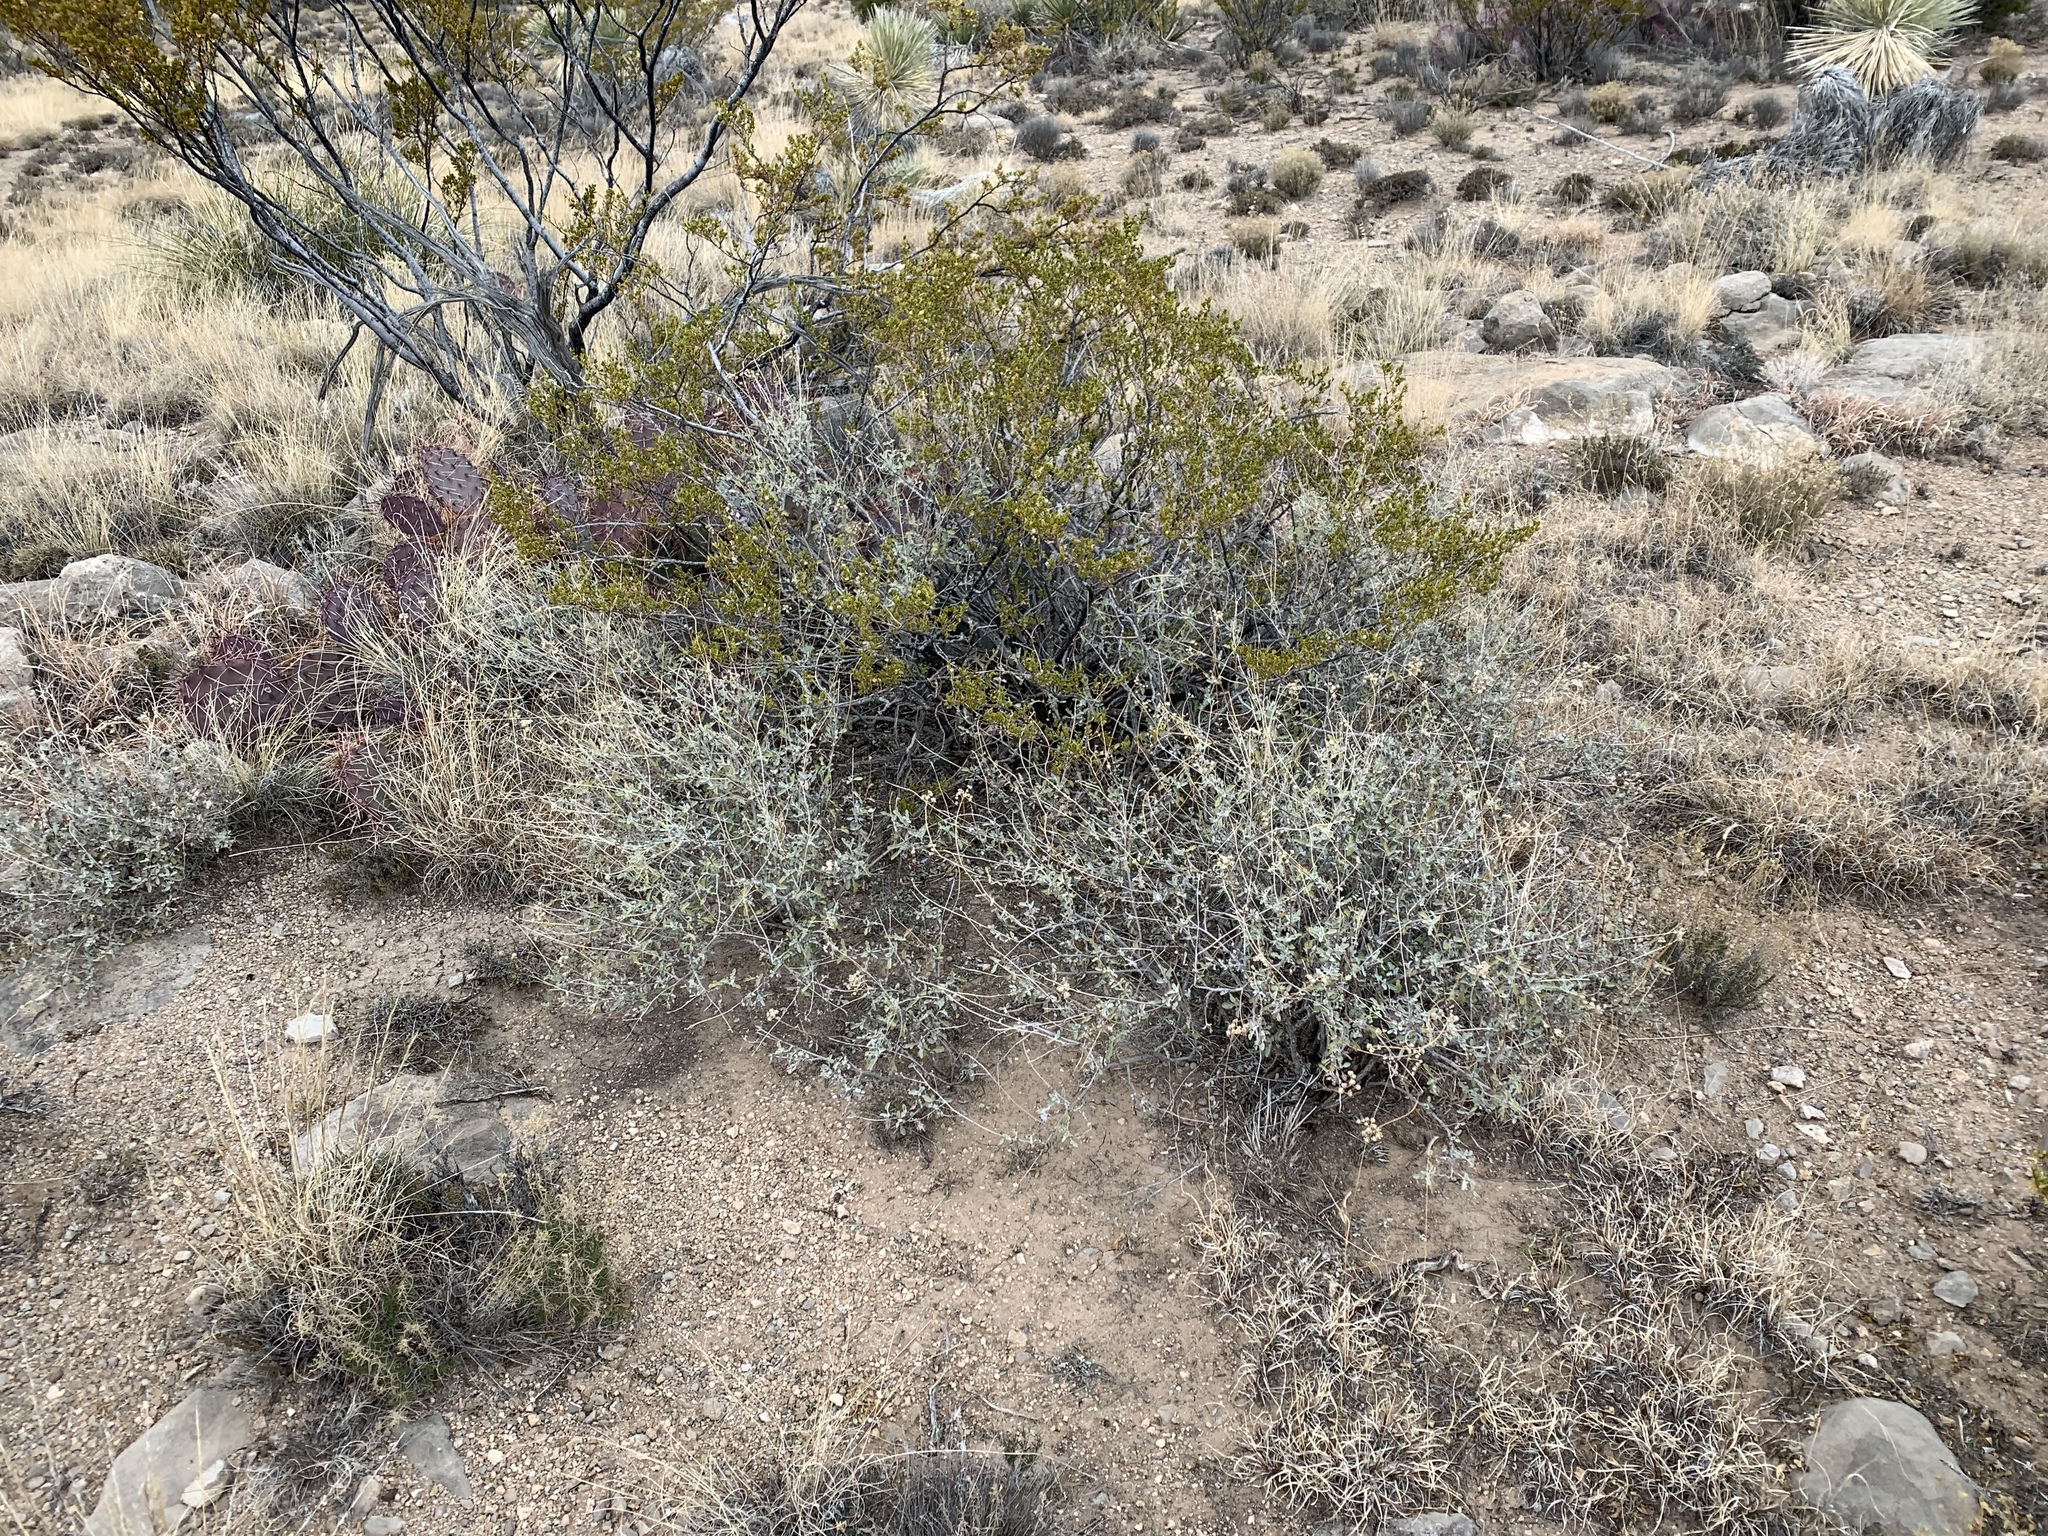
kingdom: Plantae
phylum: Tracheophyta
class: Magnoliopsida
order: Asterales
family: Asteraceae
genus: Parthenium
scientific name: Parthenium incanum
